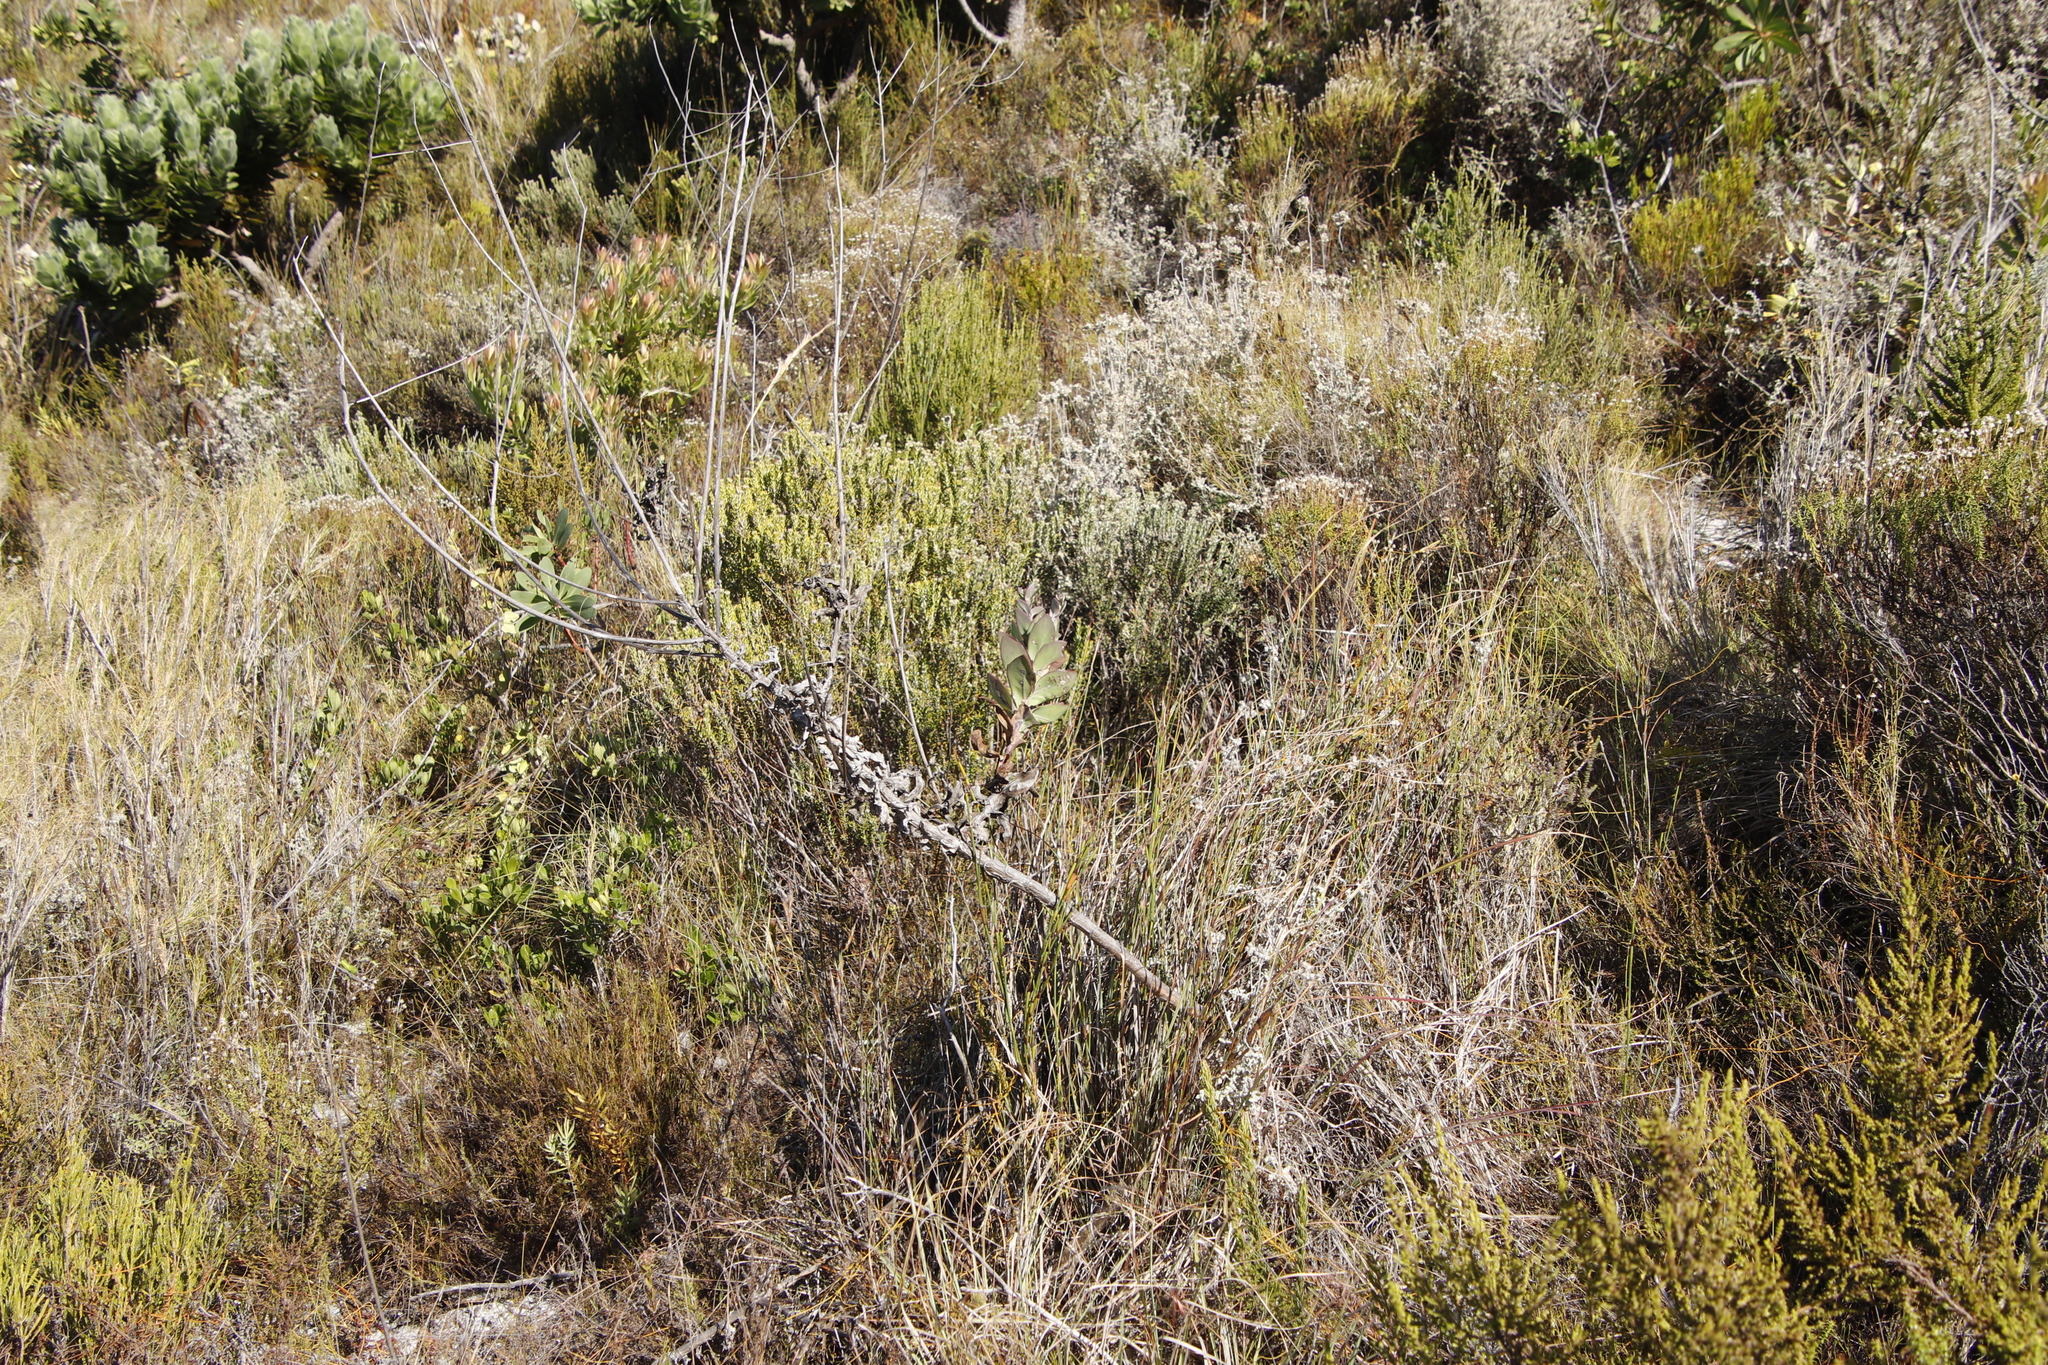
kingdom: Plantae
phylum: Tracheophyta
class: Magnoliopsida
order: Asterales
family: Asteraceae
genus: Othonna
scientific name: Othonna quinquedentata
